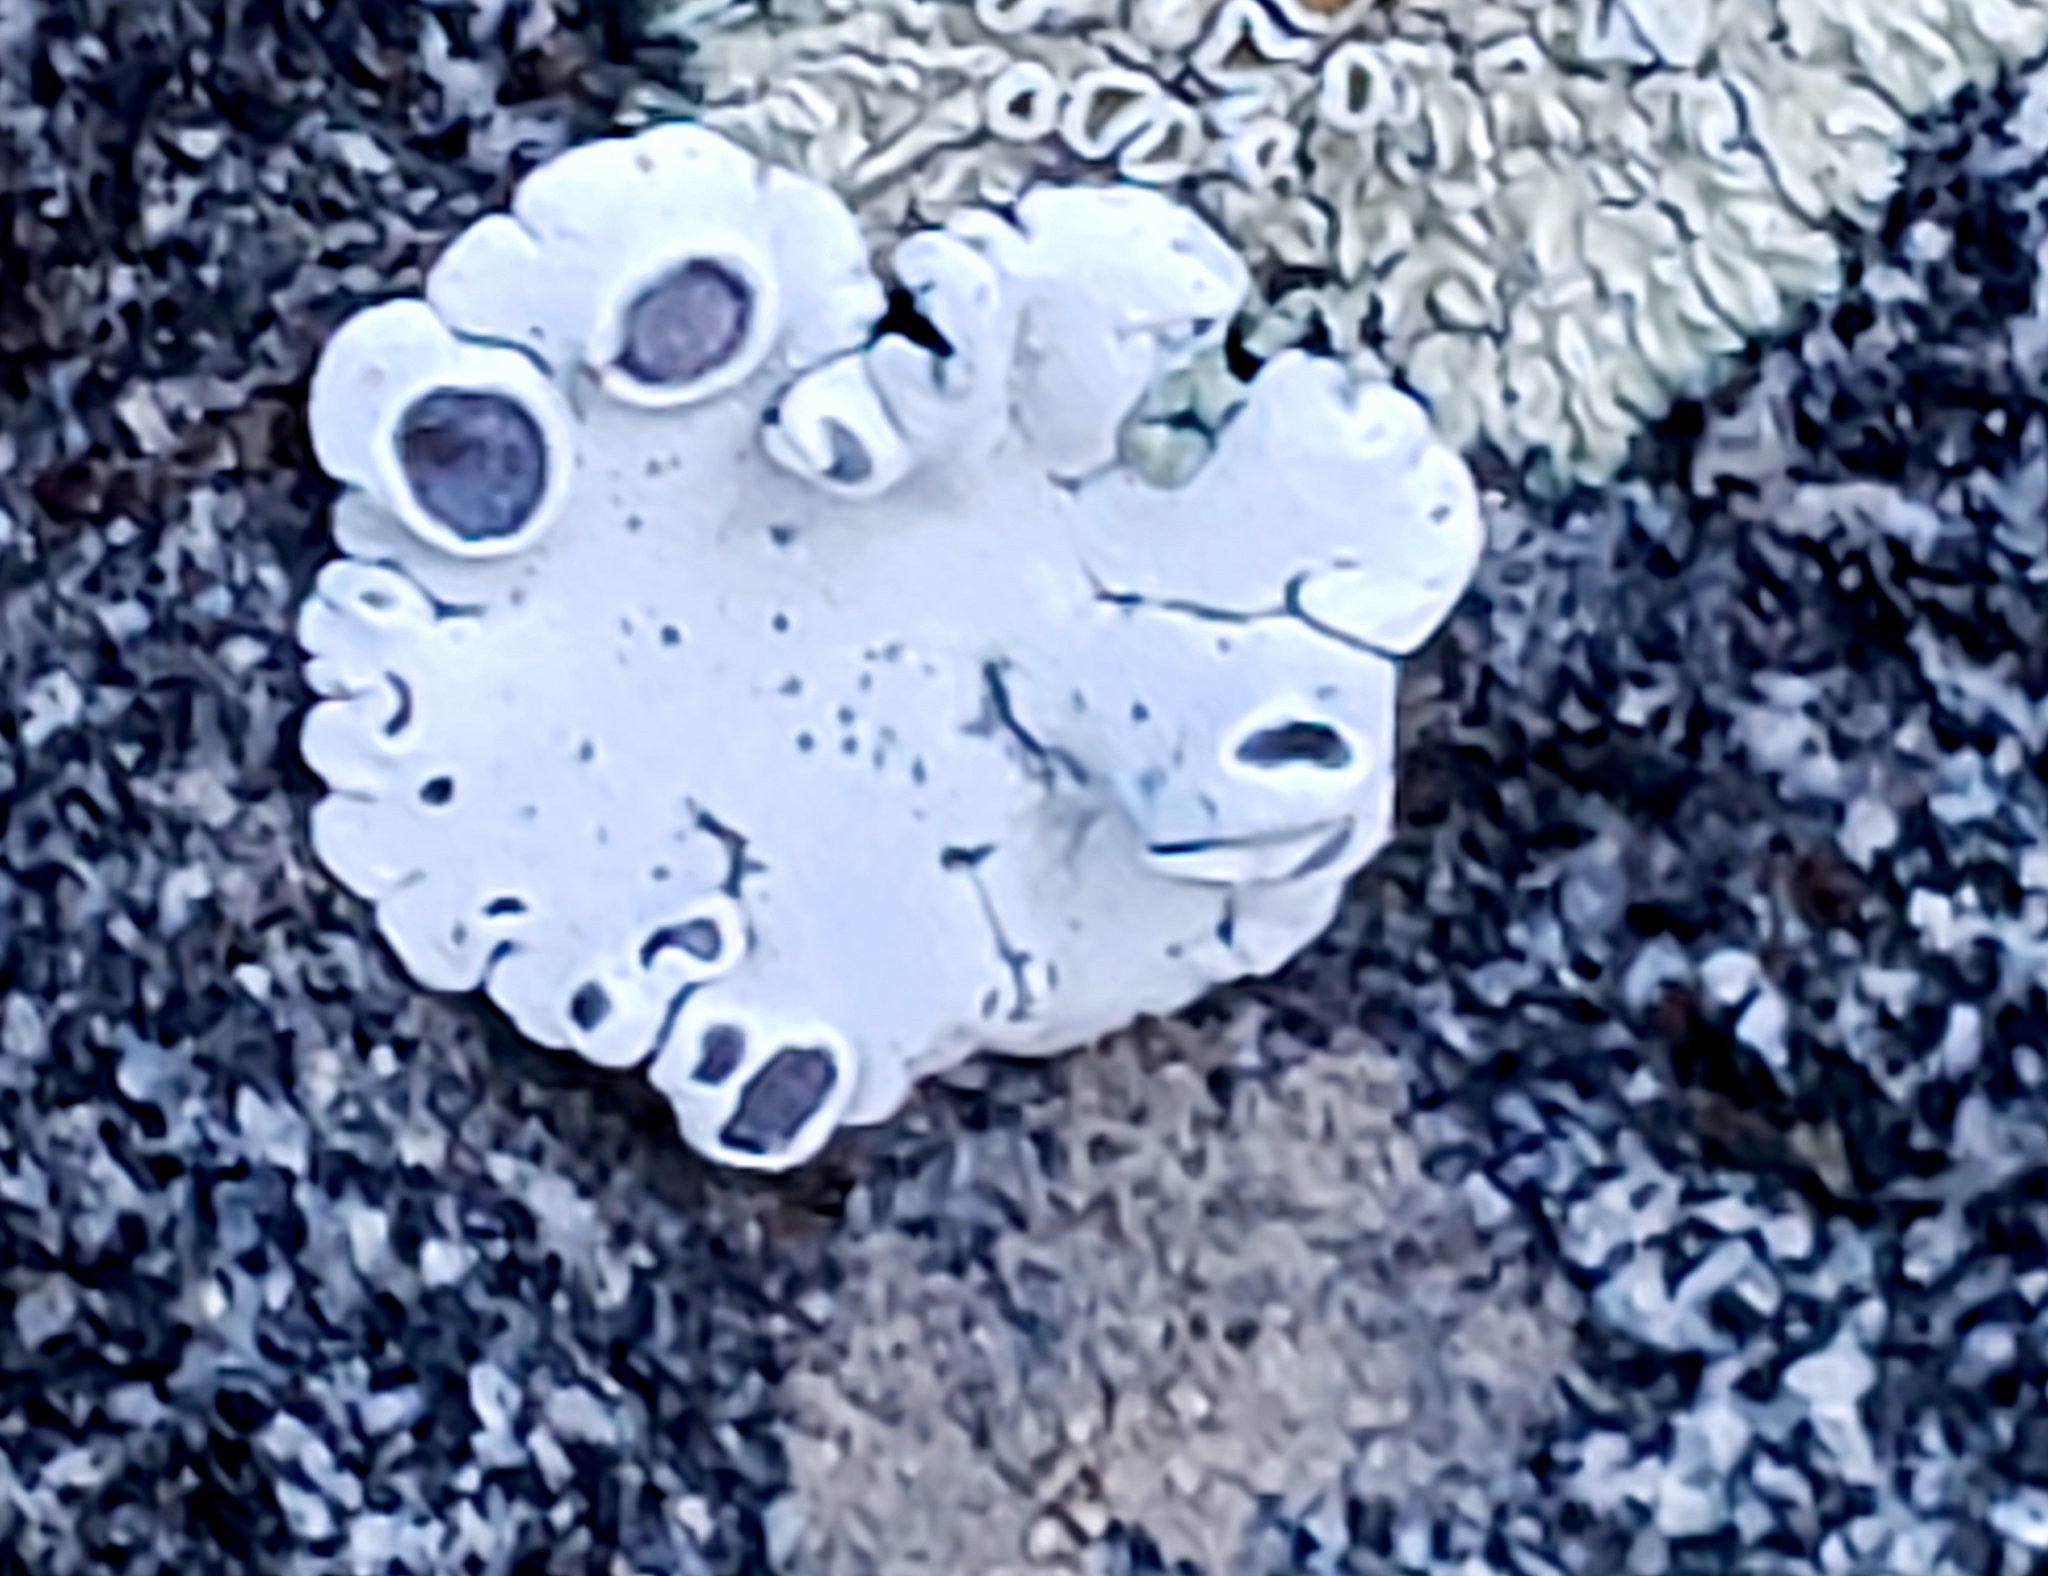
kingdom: Fungi
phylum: Ascomycota
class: Lecanoromycetes
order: Lecanorales
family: Lecanoraceae
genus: Rhizoplaca
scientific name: Rhizoplaca glaucophana
